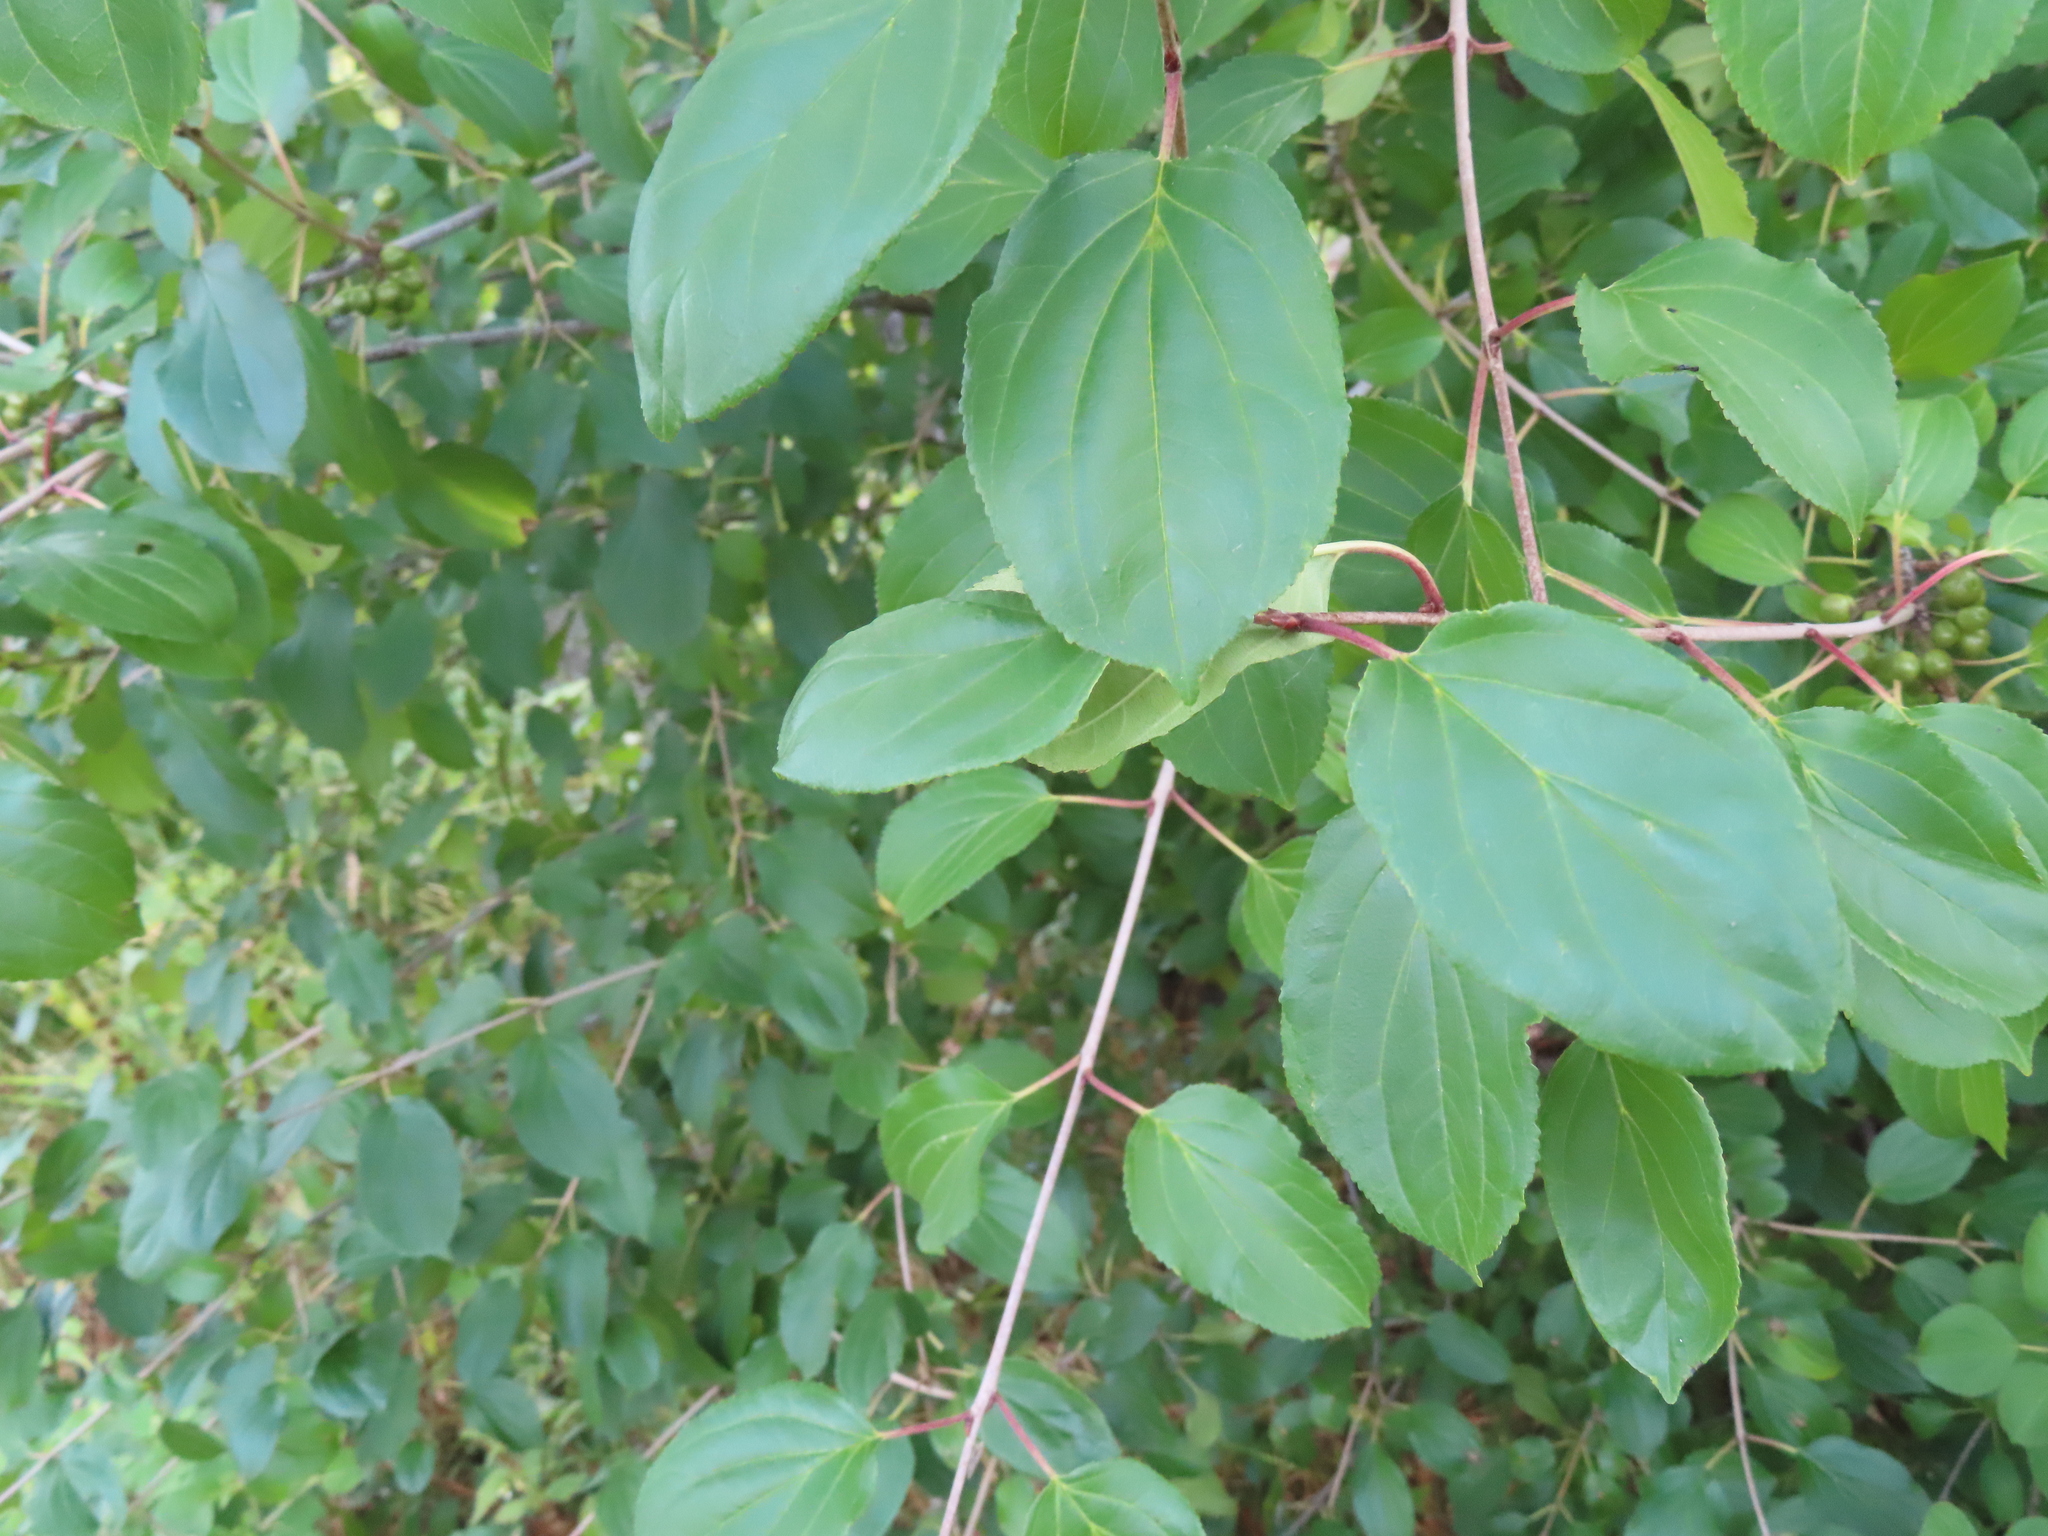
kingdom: Plantae
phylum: Tracheophyta
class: Magnoliopsida
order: Rosales
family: Rhamnaceae
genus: Rhamnus
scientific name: Rhamnus cathartica
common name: Common buckthorn
